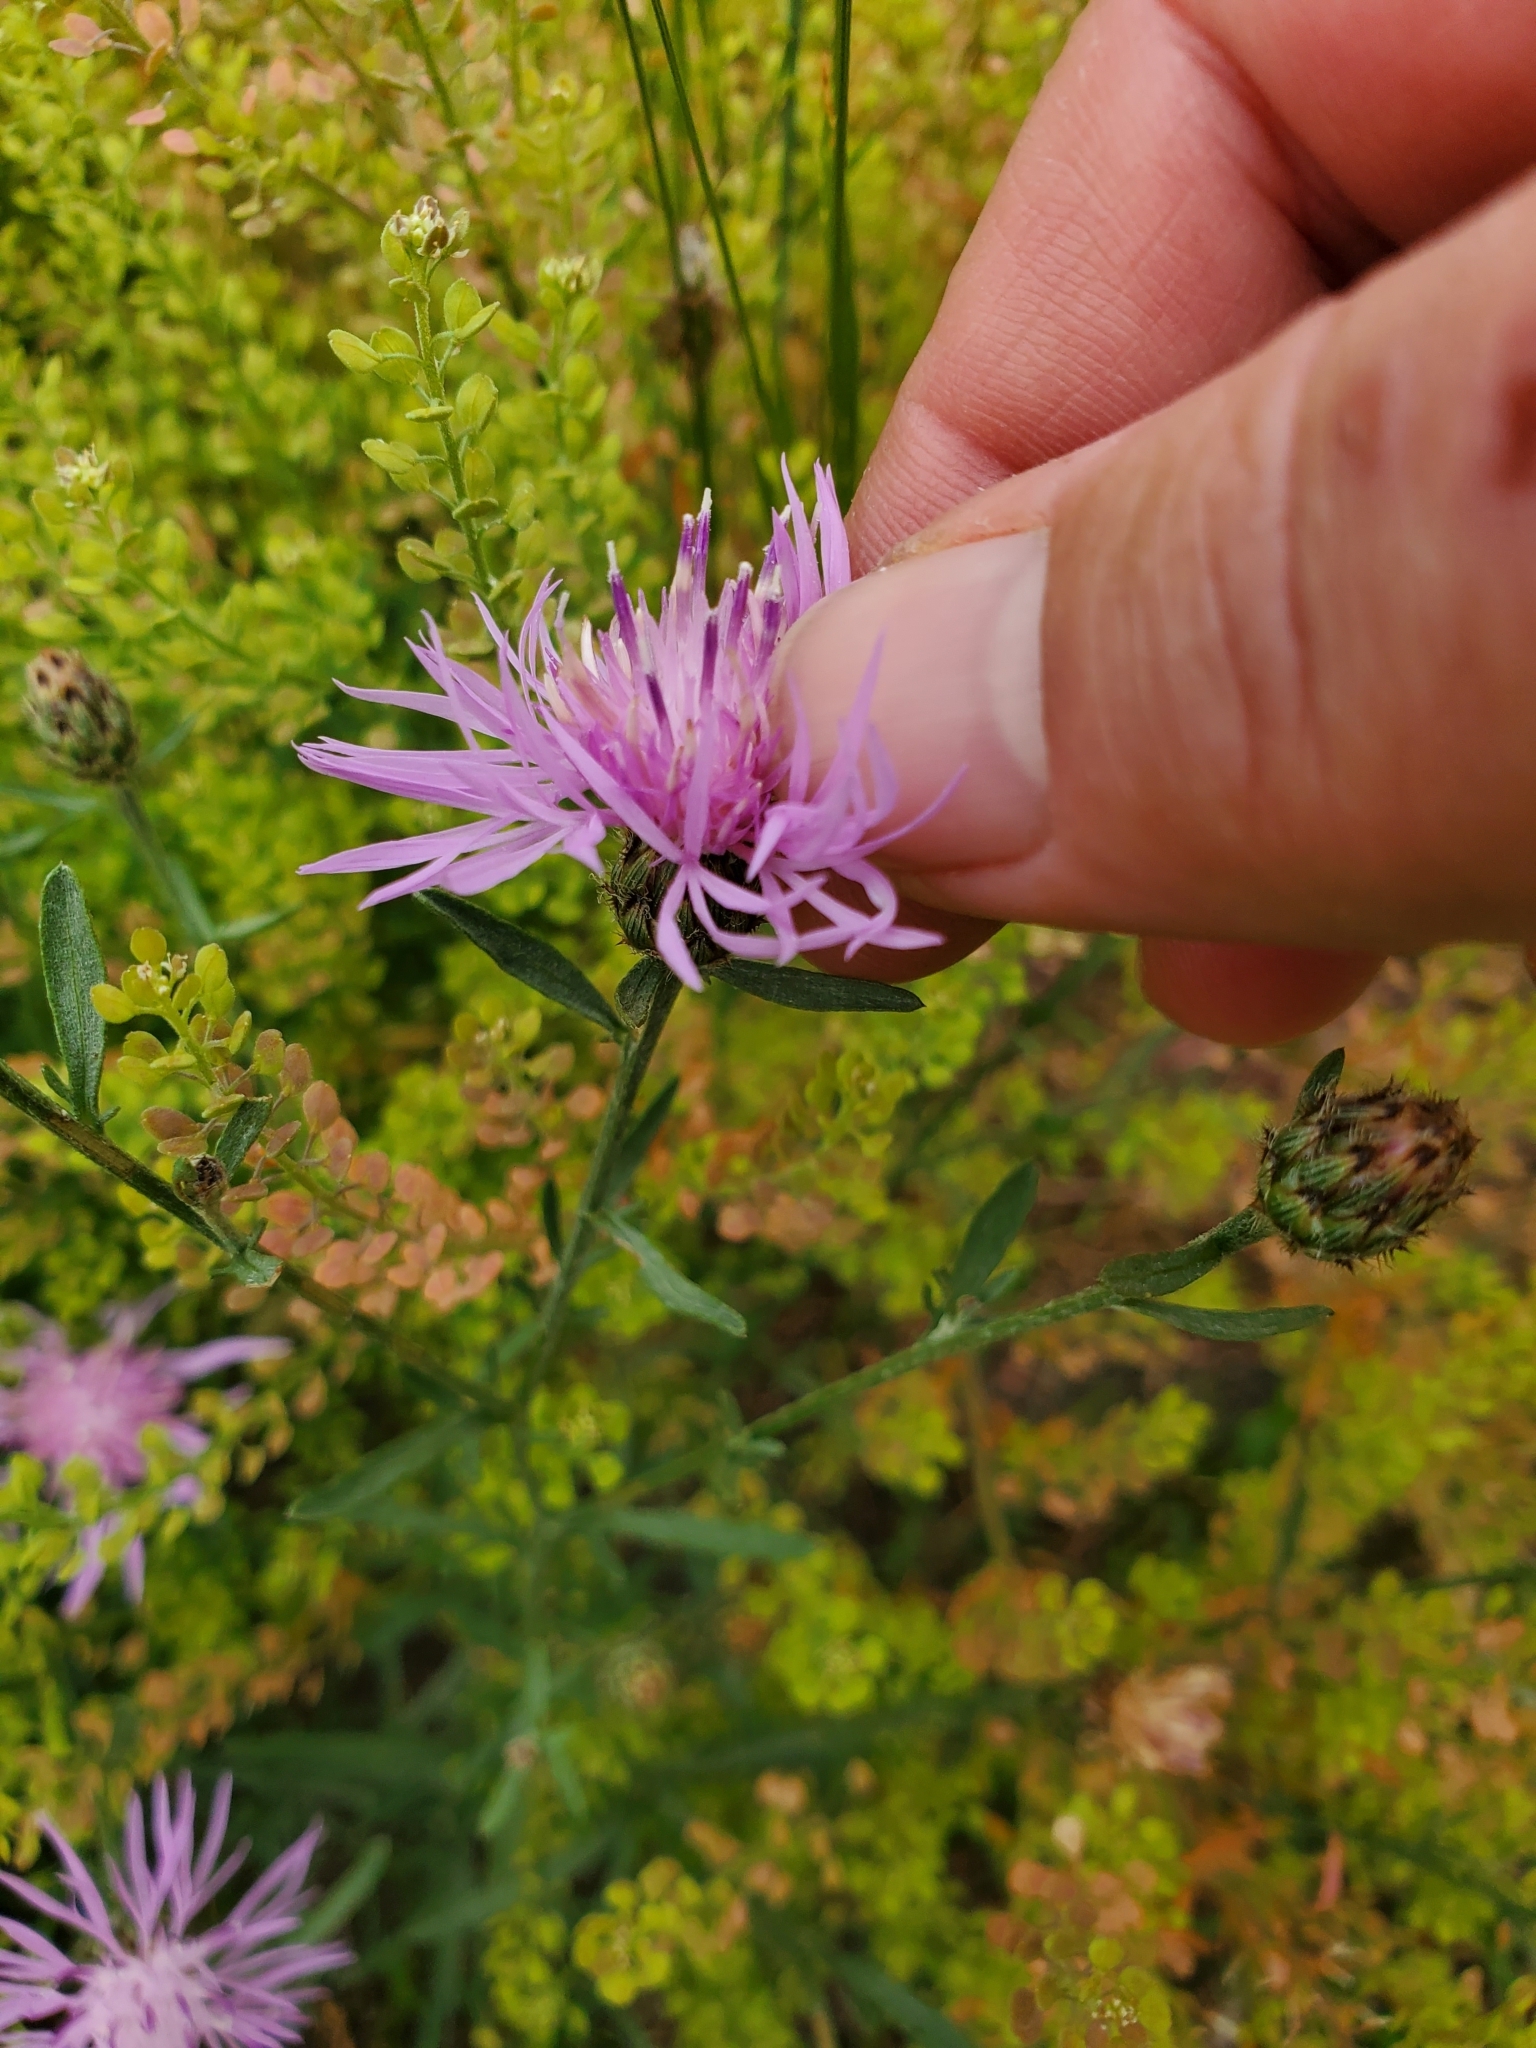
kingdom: Plantae
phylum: Tracheophyta
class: Magnoliopsida
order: Asterales
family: Asteraceae
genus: Centaurea
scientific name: Centaurea stoebe
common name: Spotted knapweed
